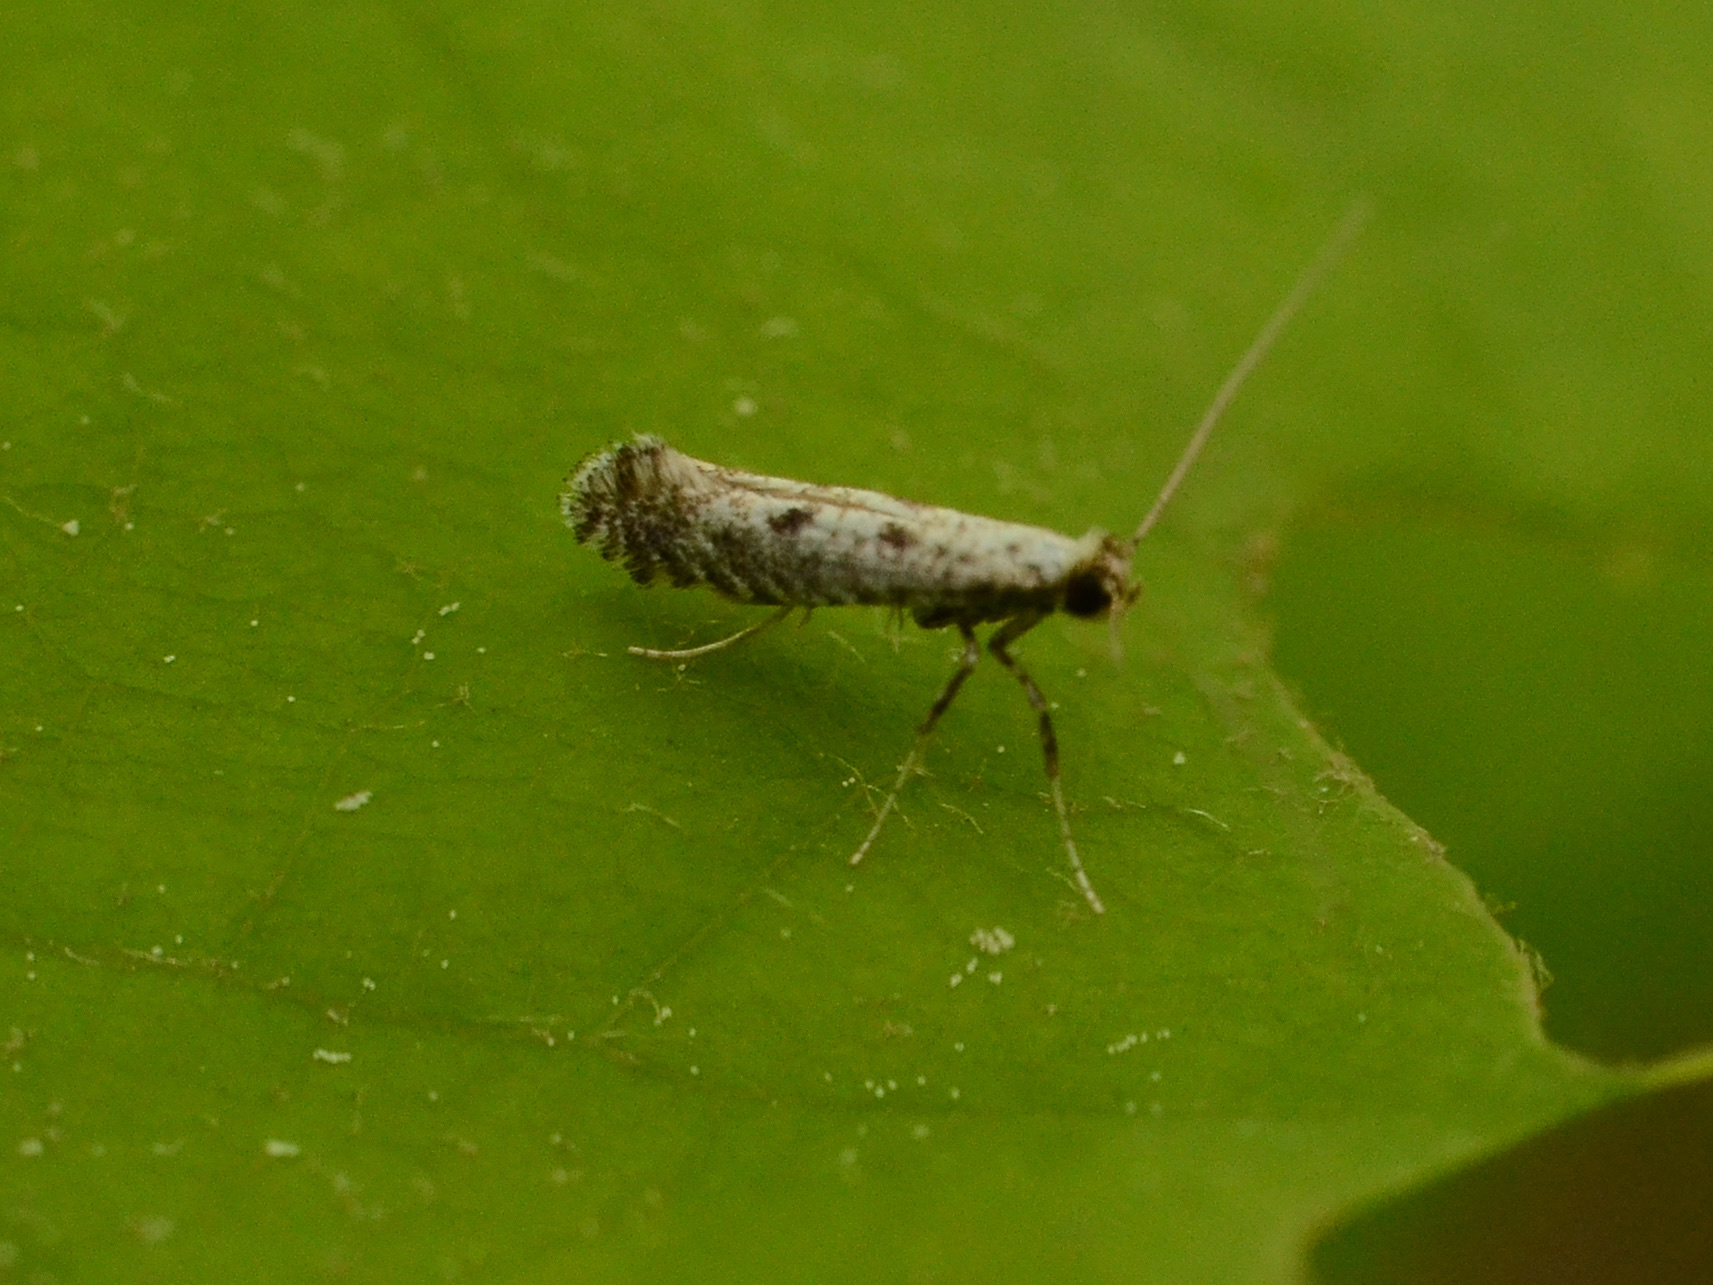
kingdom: Animalia
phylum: Arthropoda
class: Insecta
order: Lepidoptera
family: Gracillariidae
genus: Parornix
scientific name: Parornix
